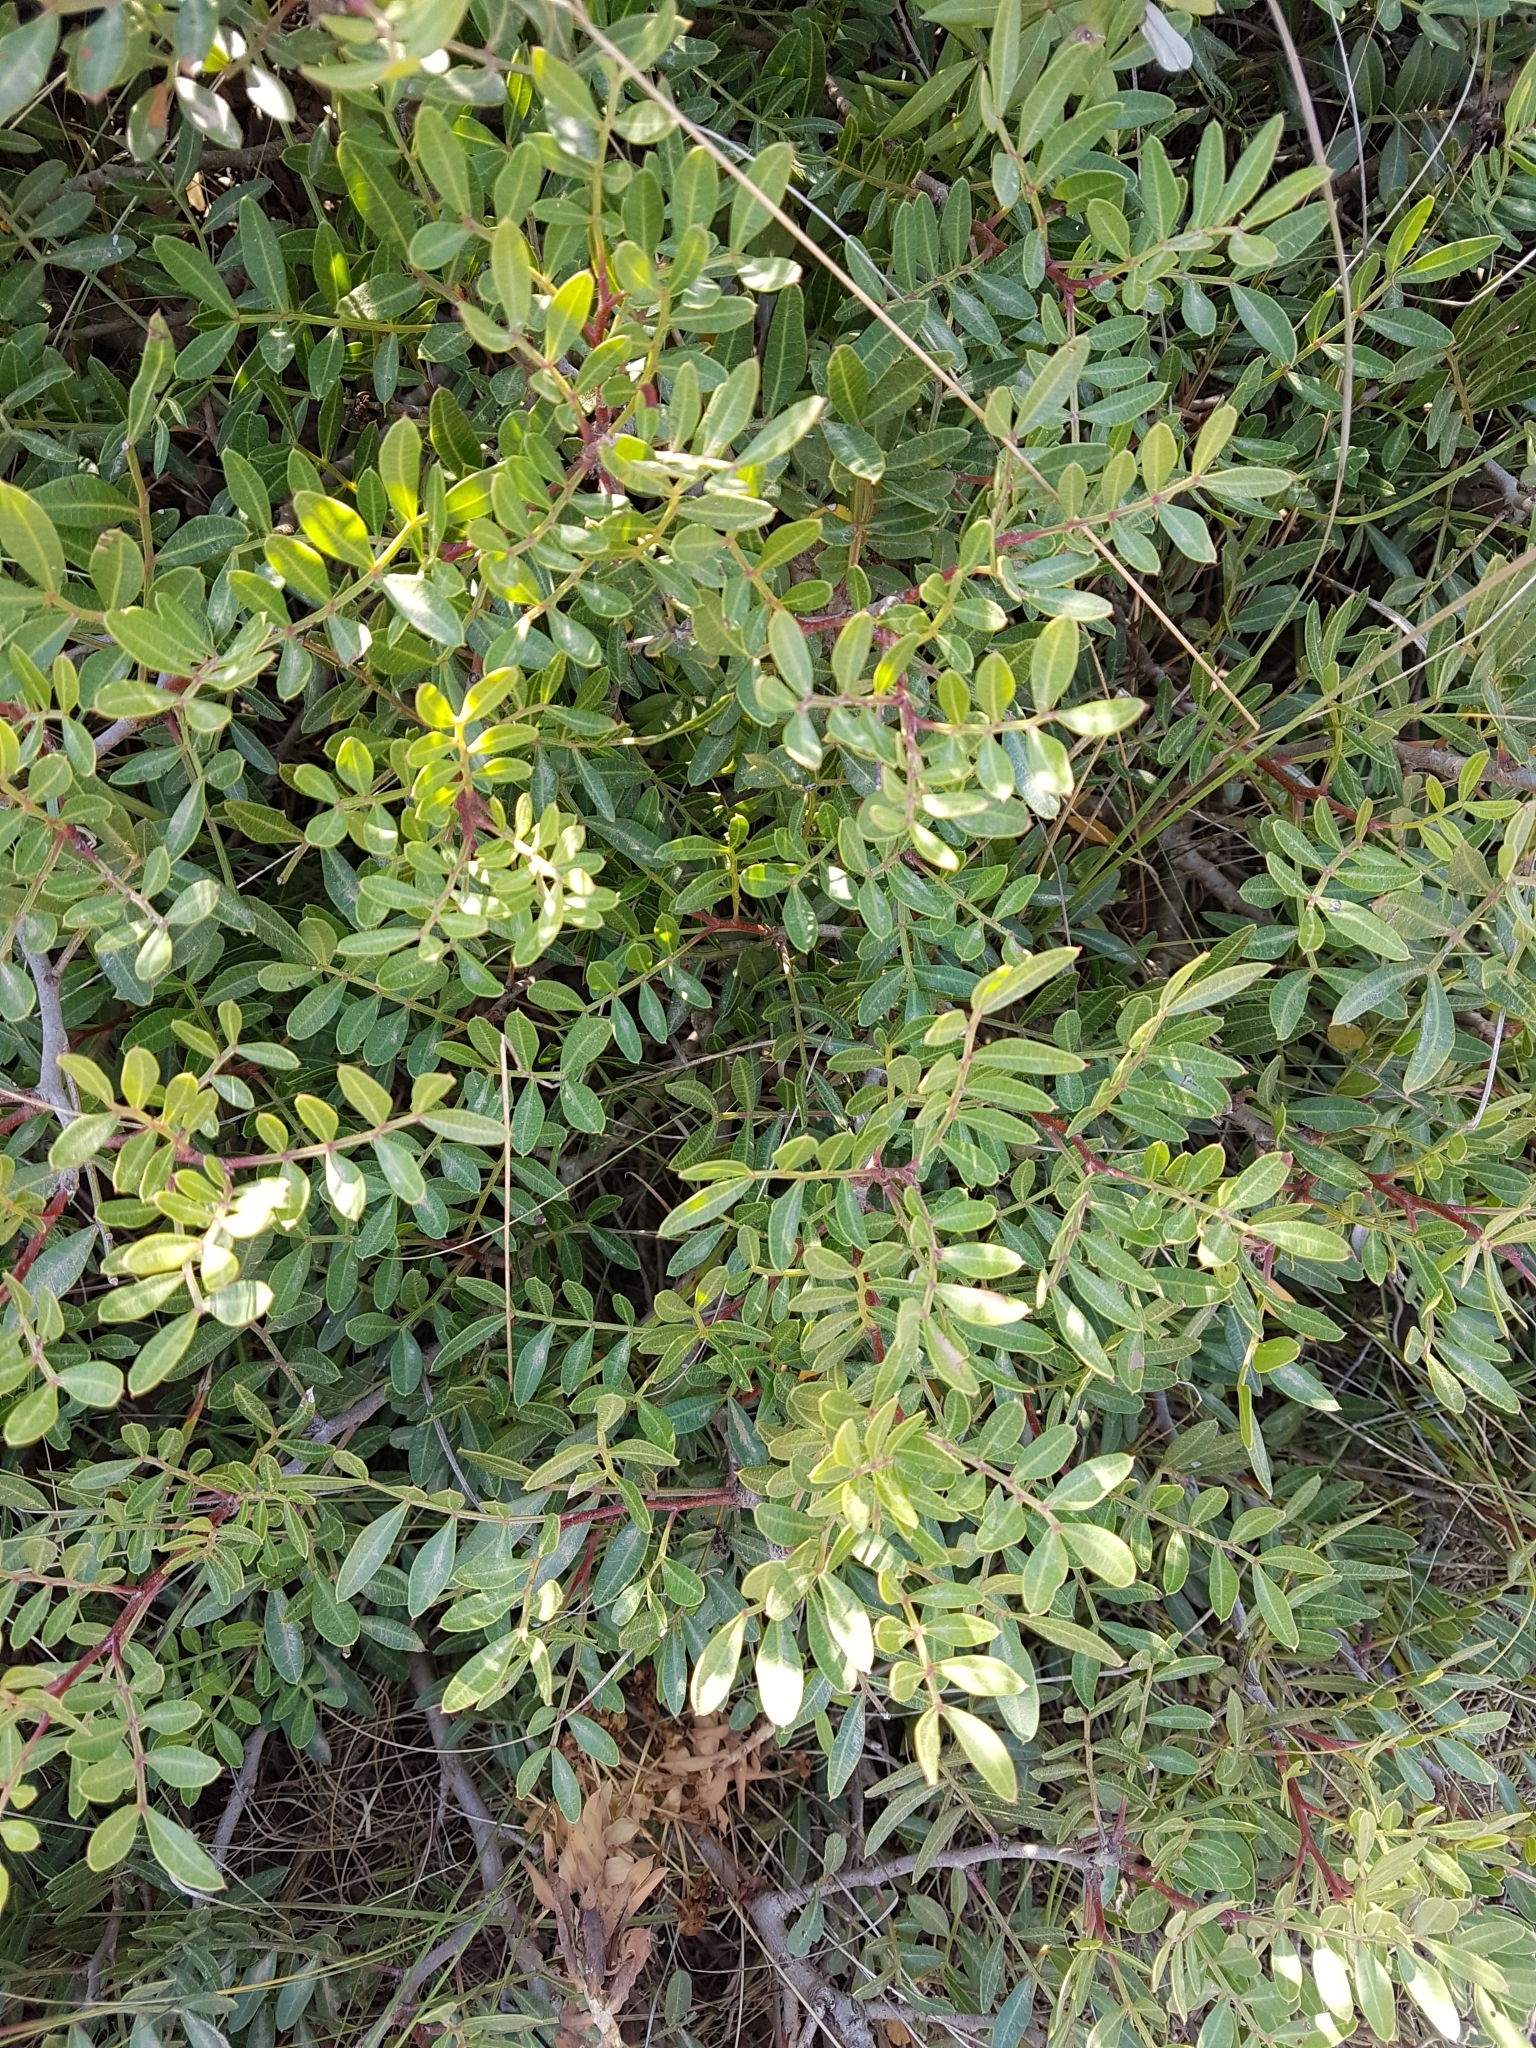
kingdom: Plantae
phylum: Tracheophyta
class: Magnoliopsida
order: Sapindales
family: Anacardiaceae
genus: Pistacia
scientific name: Pistacia lentiscus
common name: Lentisk
